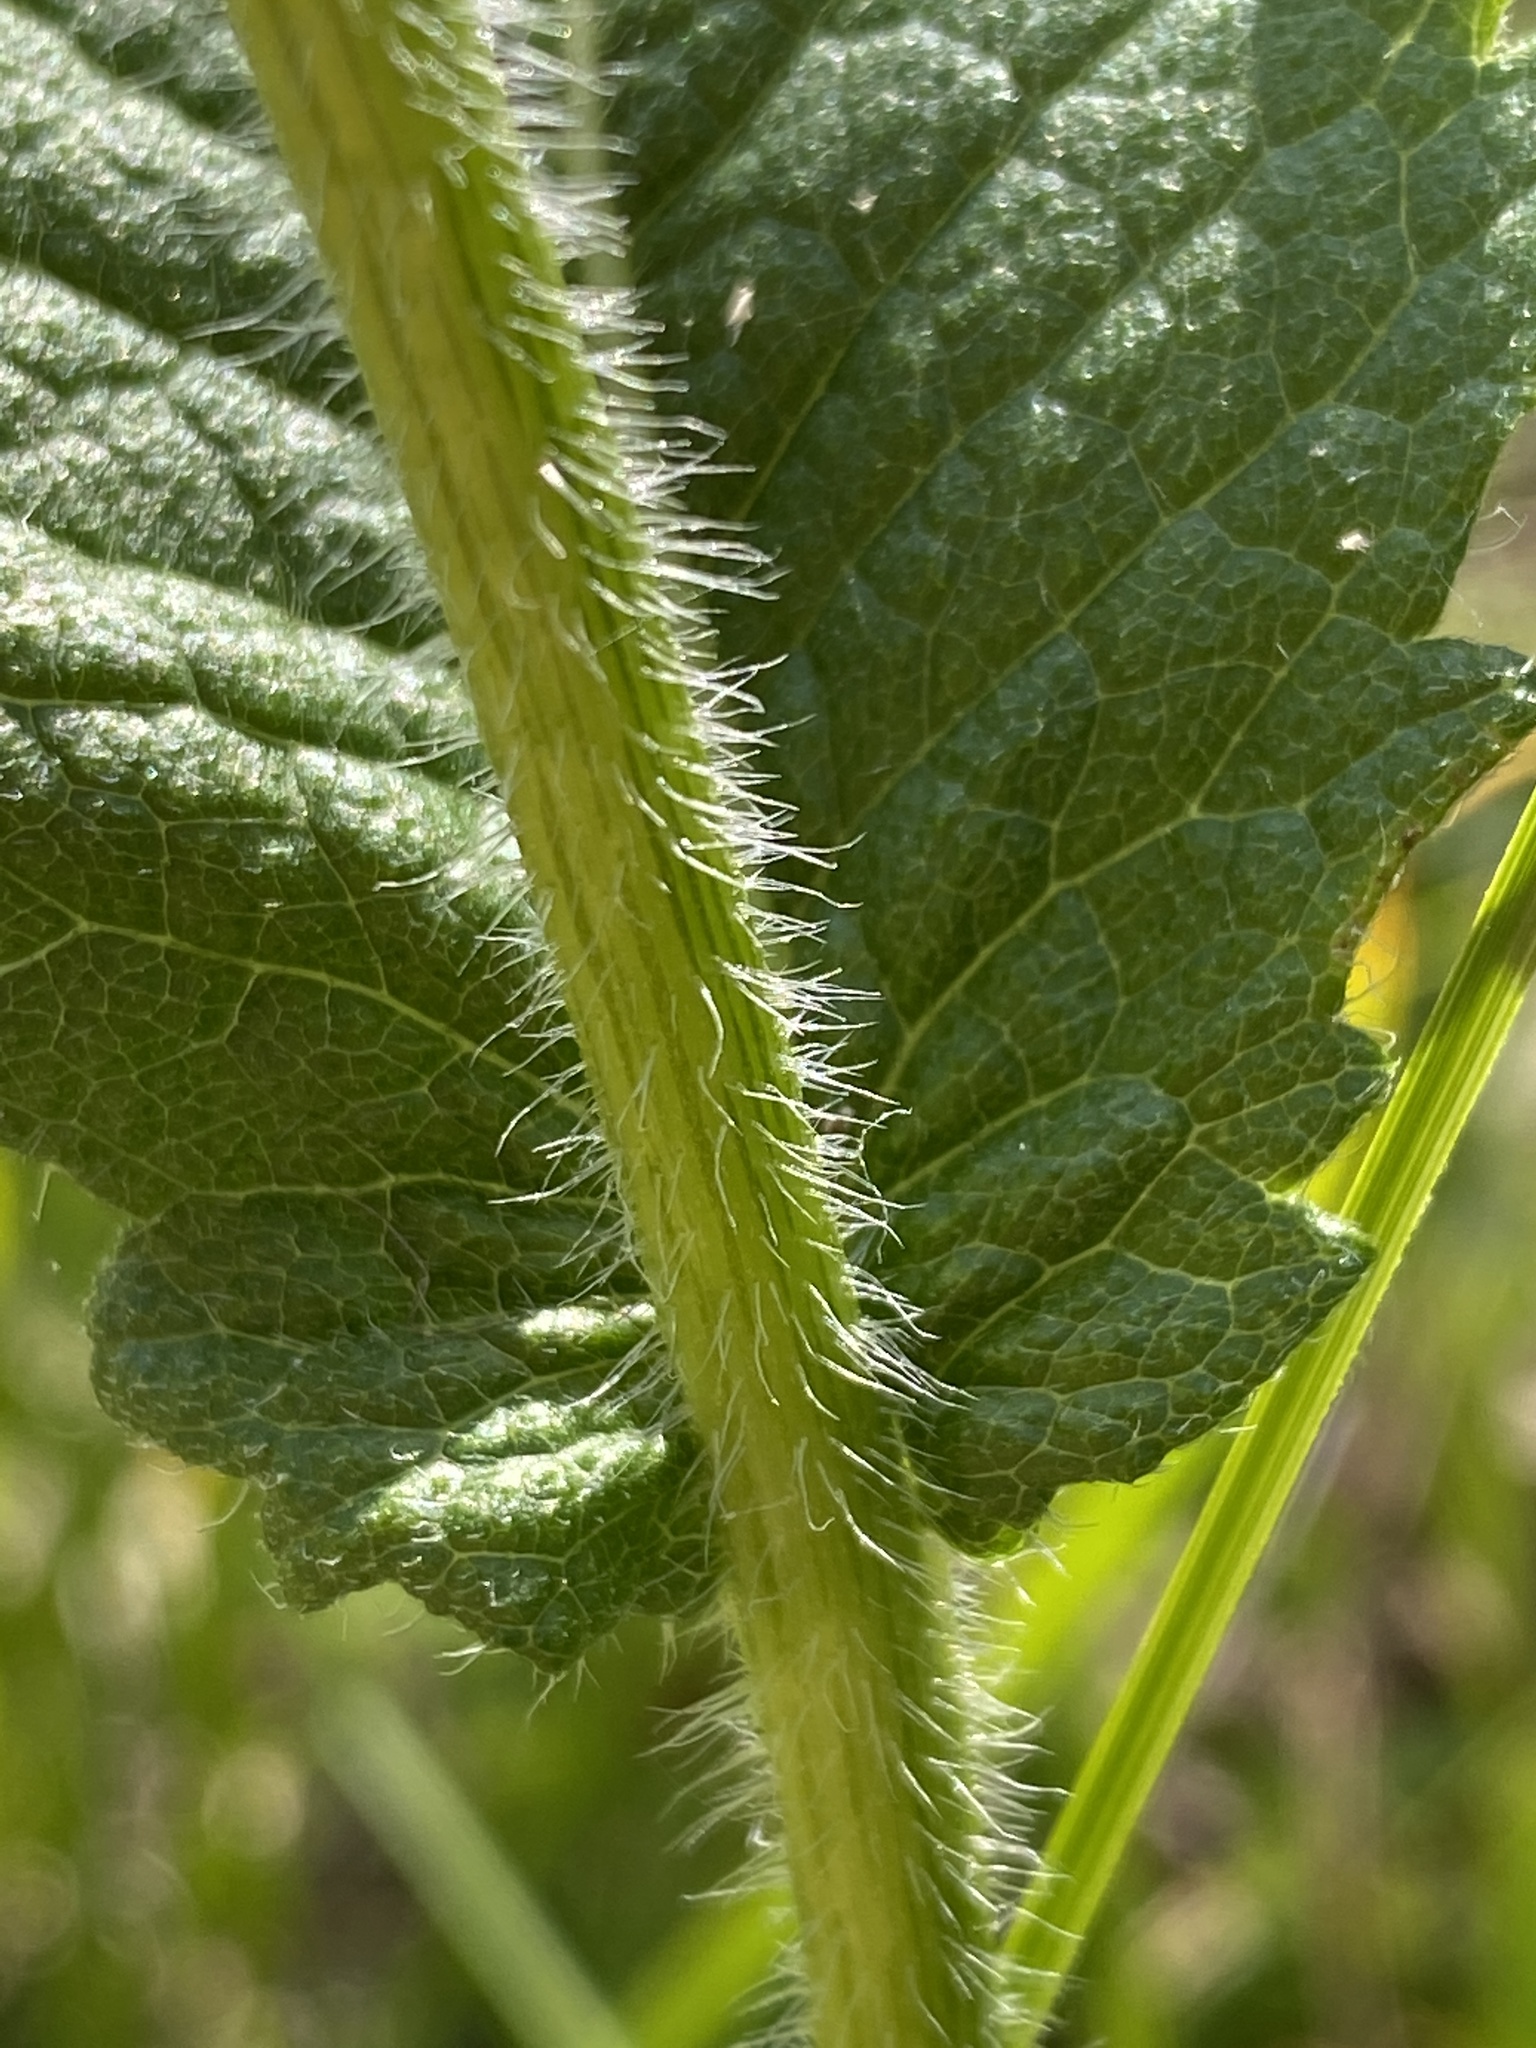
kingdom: Plantae
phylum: Tracheophyta
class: Magnoliopsida
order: Asterales
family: Asteraceae
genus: Parthenium
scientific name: Parthenium auriculatum
